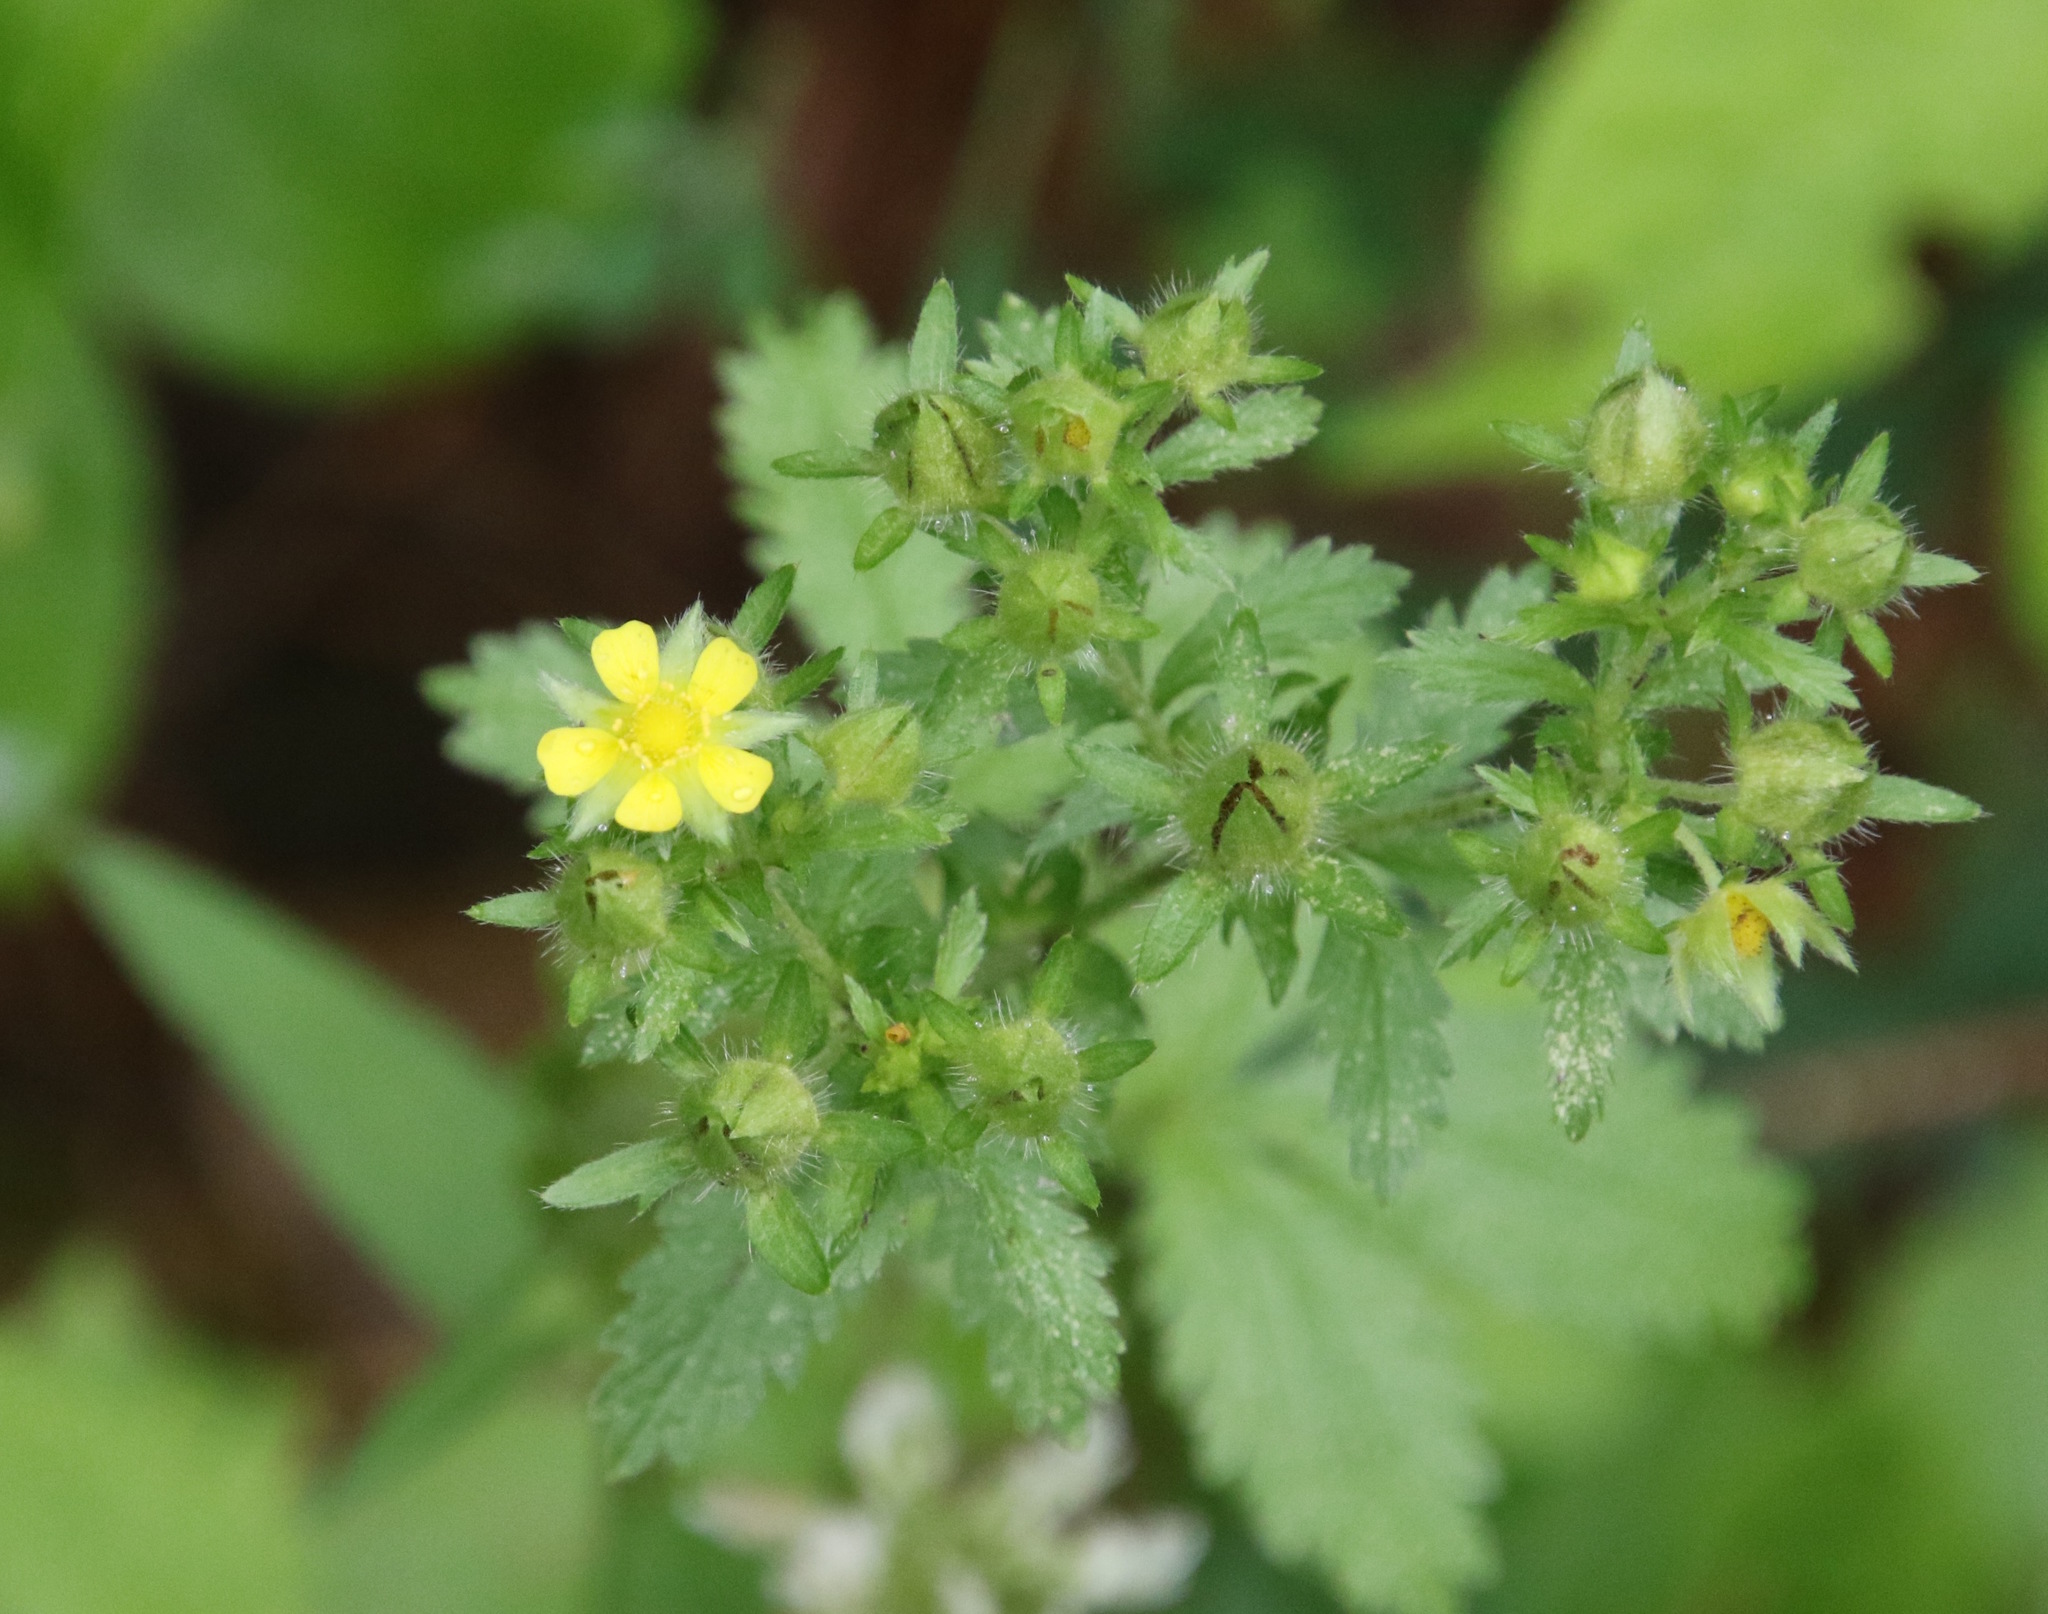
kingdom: Plantae
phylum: Tracheophyta
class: Magnoliopsida
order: Rosales
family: Rosaceae
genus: Potentilla
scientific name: Potentilla norvegica
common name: Ternate-leaved cinquefoil
